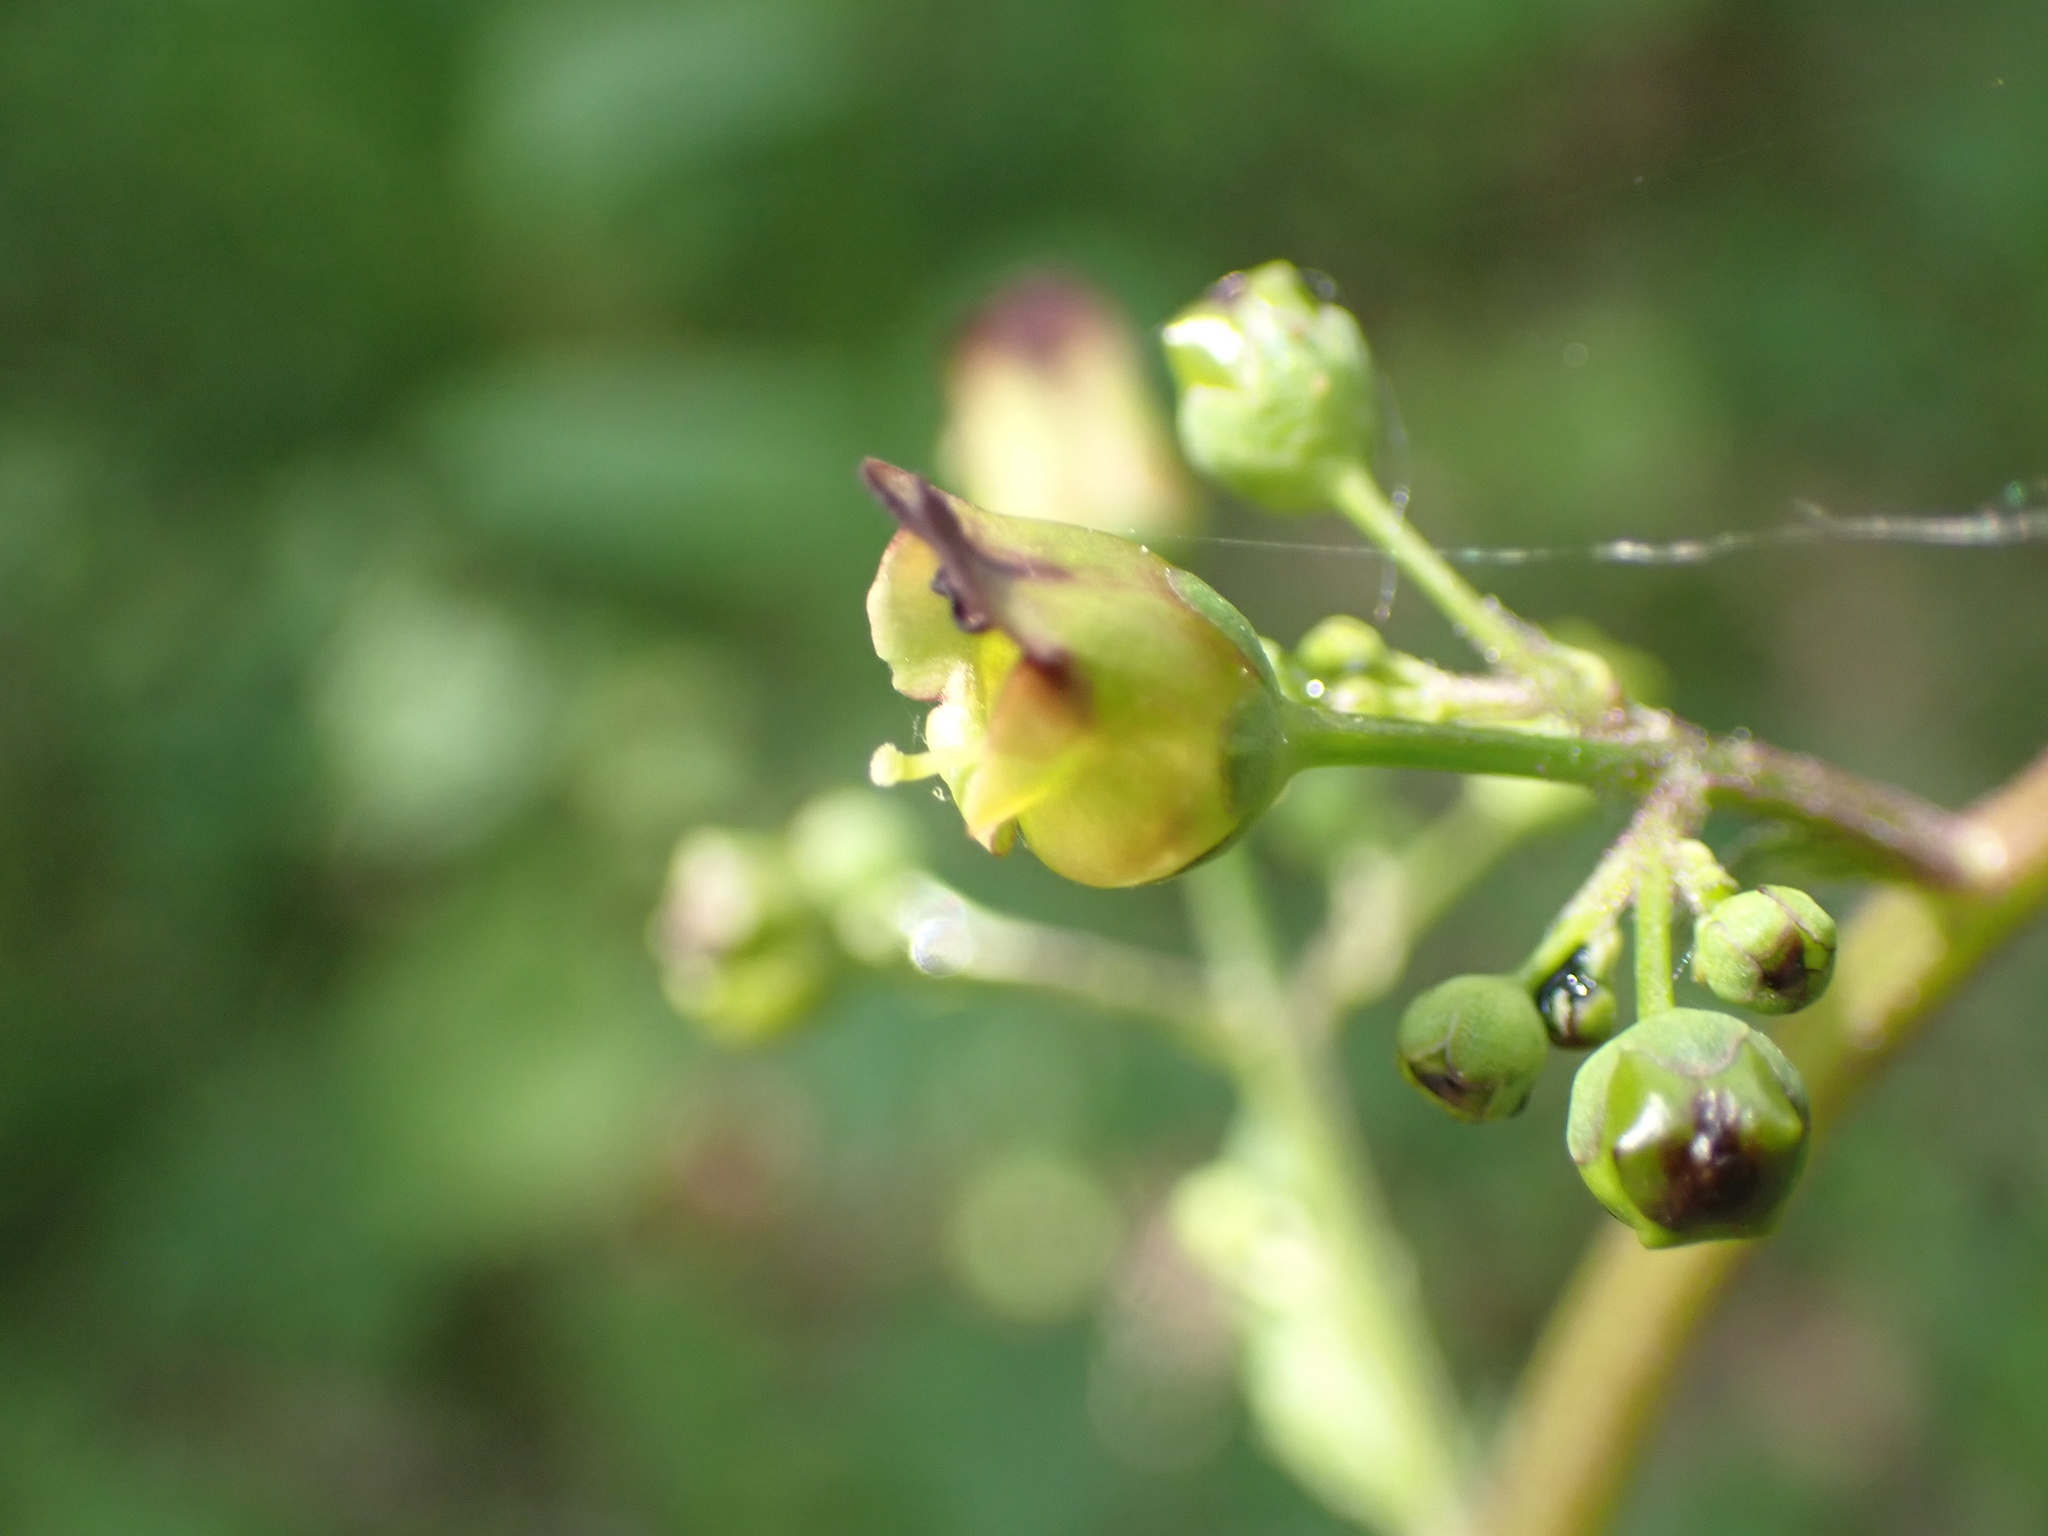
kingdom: Plantae
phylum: Tracheophyta
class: Magnoliopsida
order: Lamiales
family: Scrophulariaceae
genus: Scrophularia
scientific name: Scrophularia nodosa
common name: Common figwort
